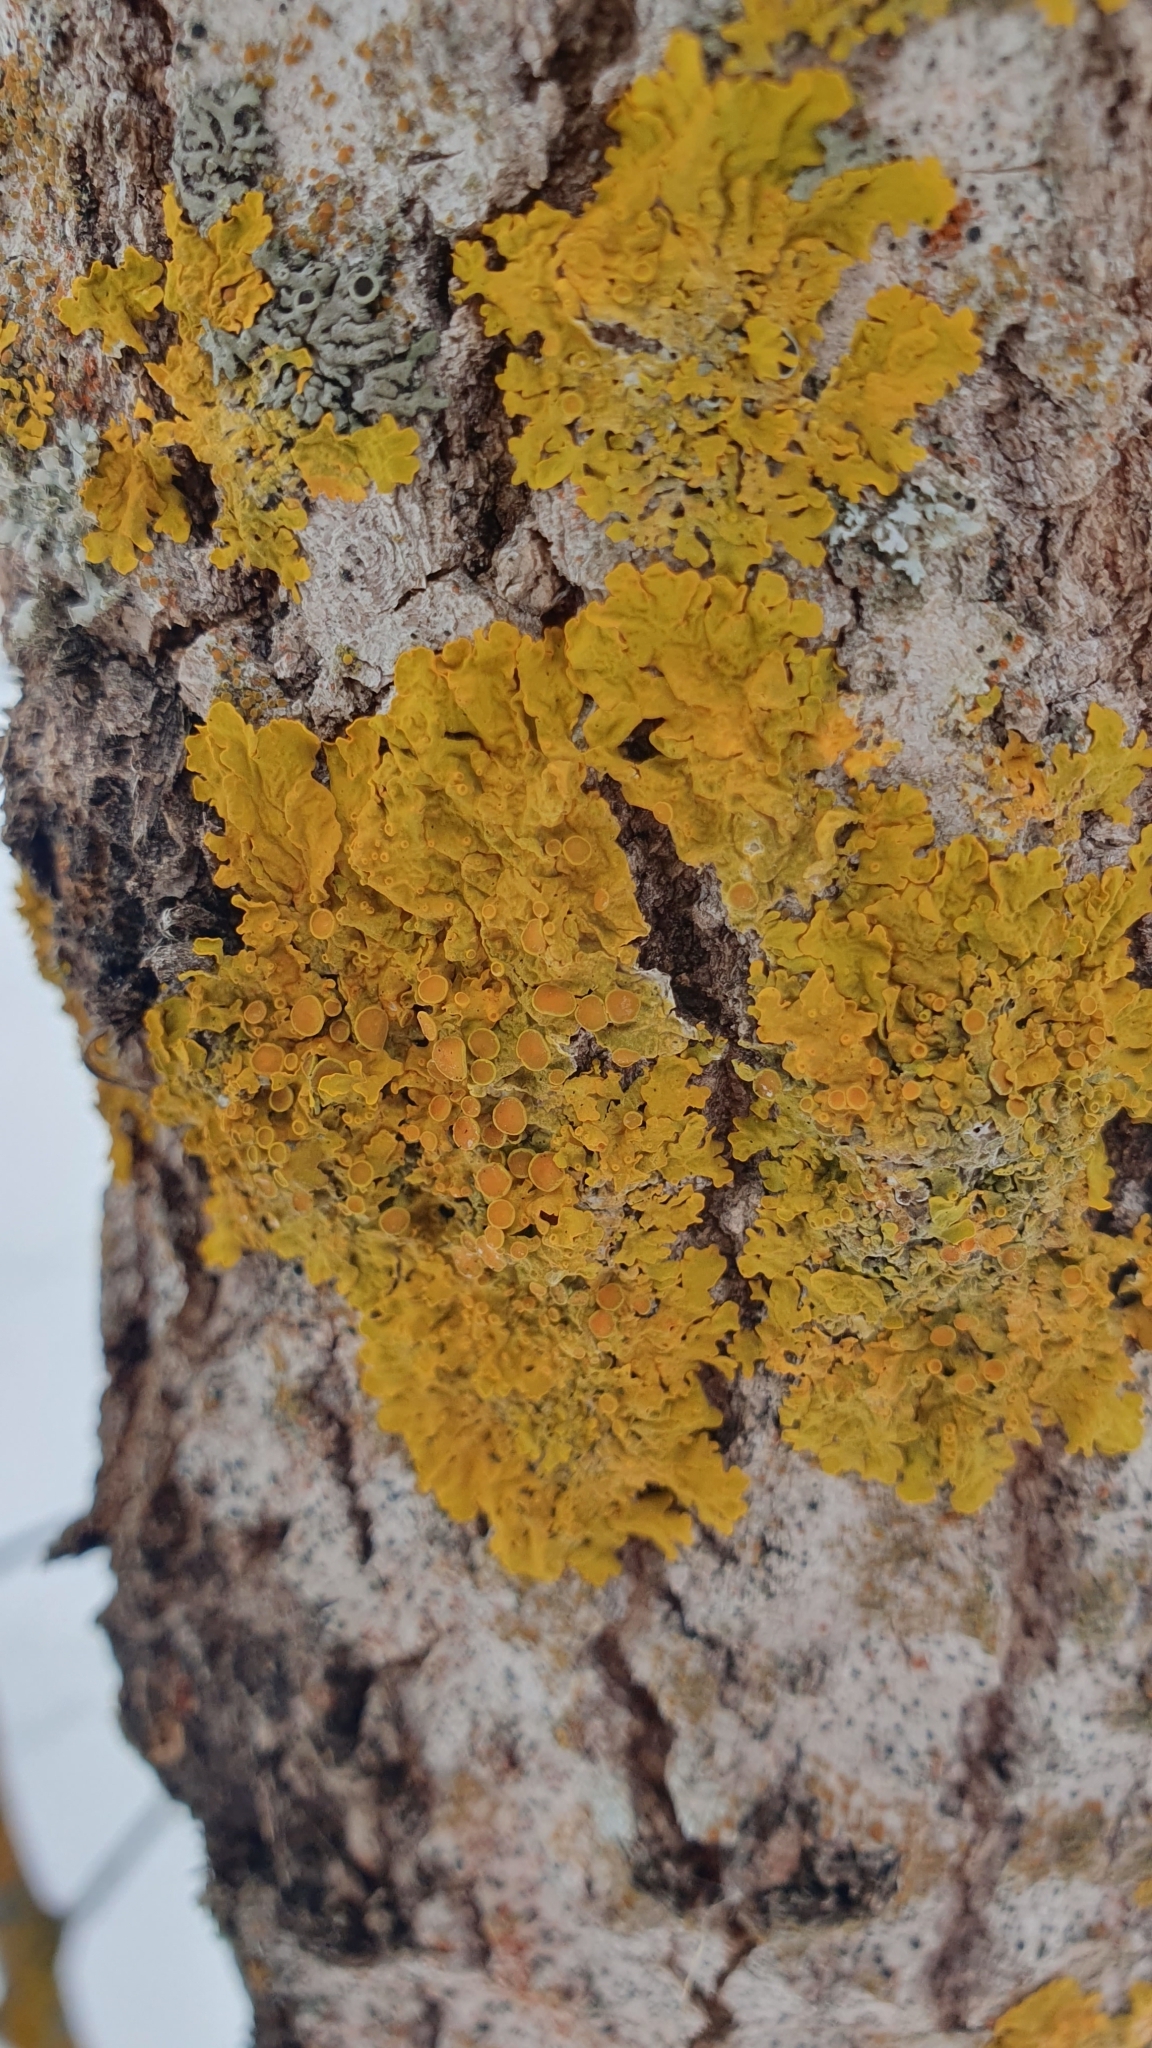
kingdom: Fungi
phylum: Ascomycota
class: Lecanoromycetes
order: Teloschistales
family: Teloschistaceae
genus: Xanthoria
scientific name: Xanthoria parietina
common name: Common orange lichen
